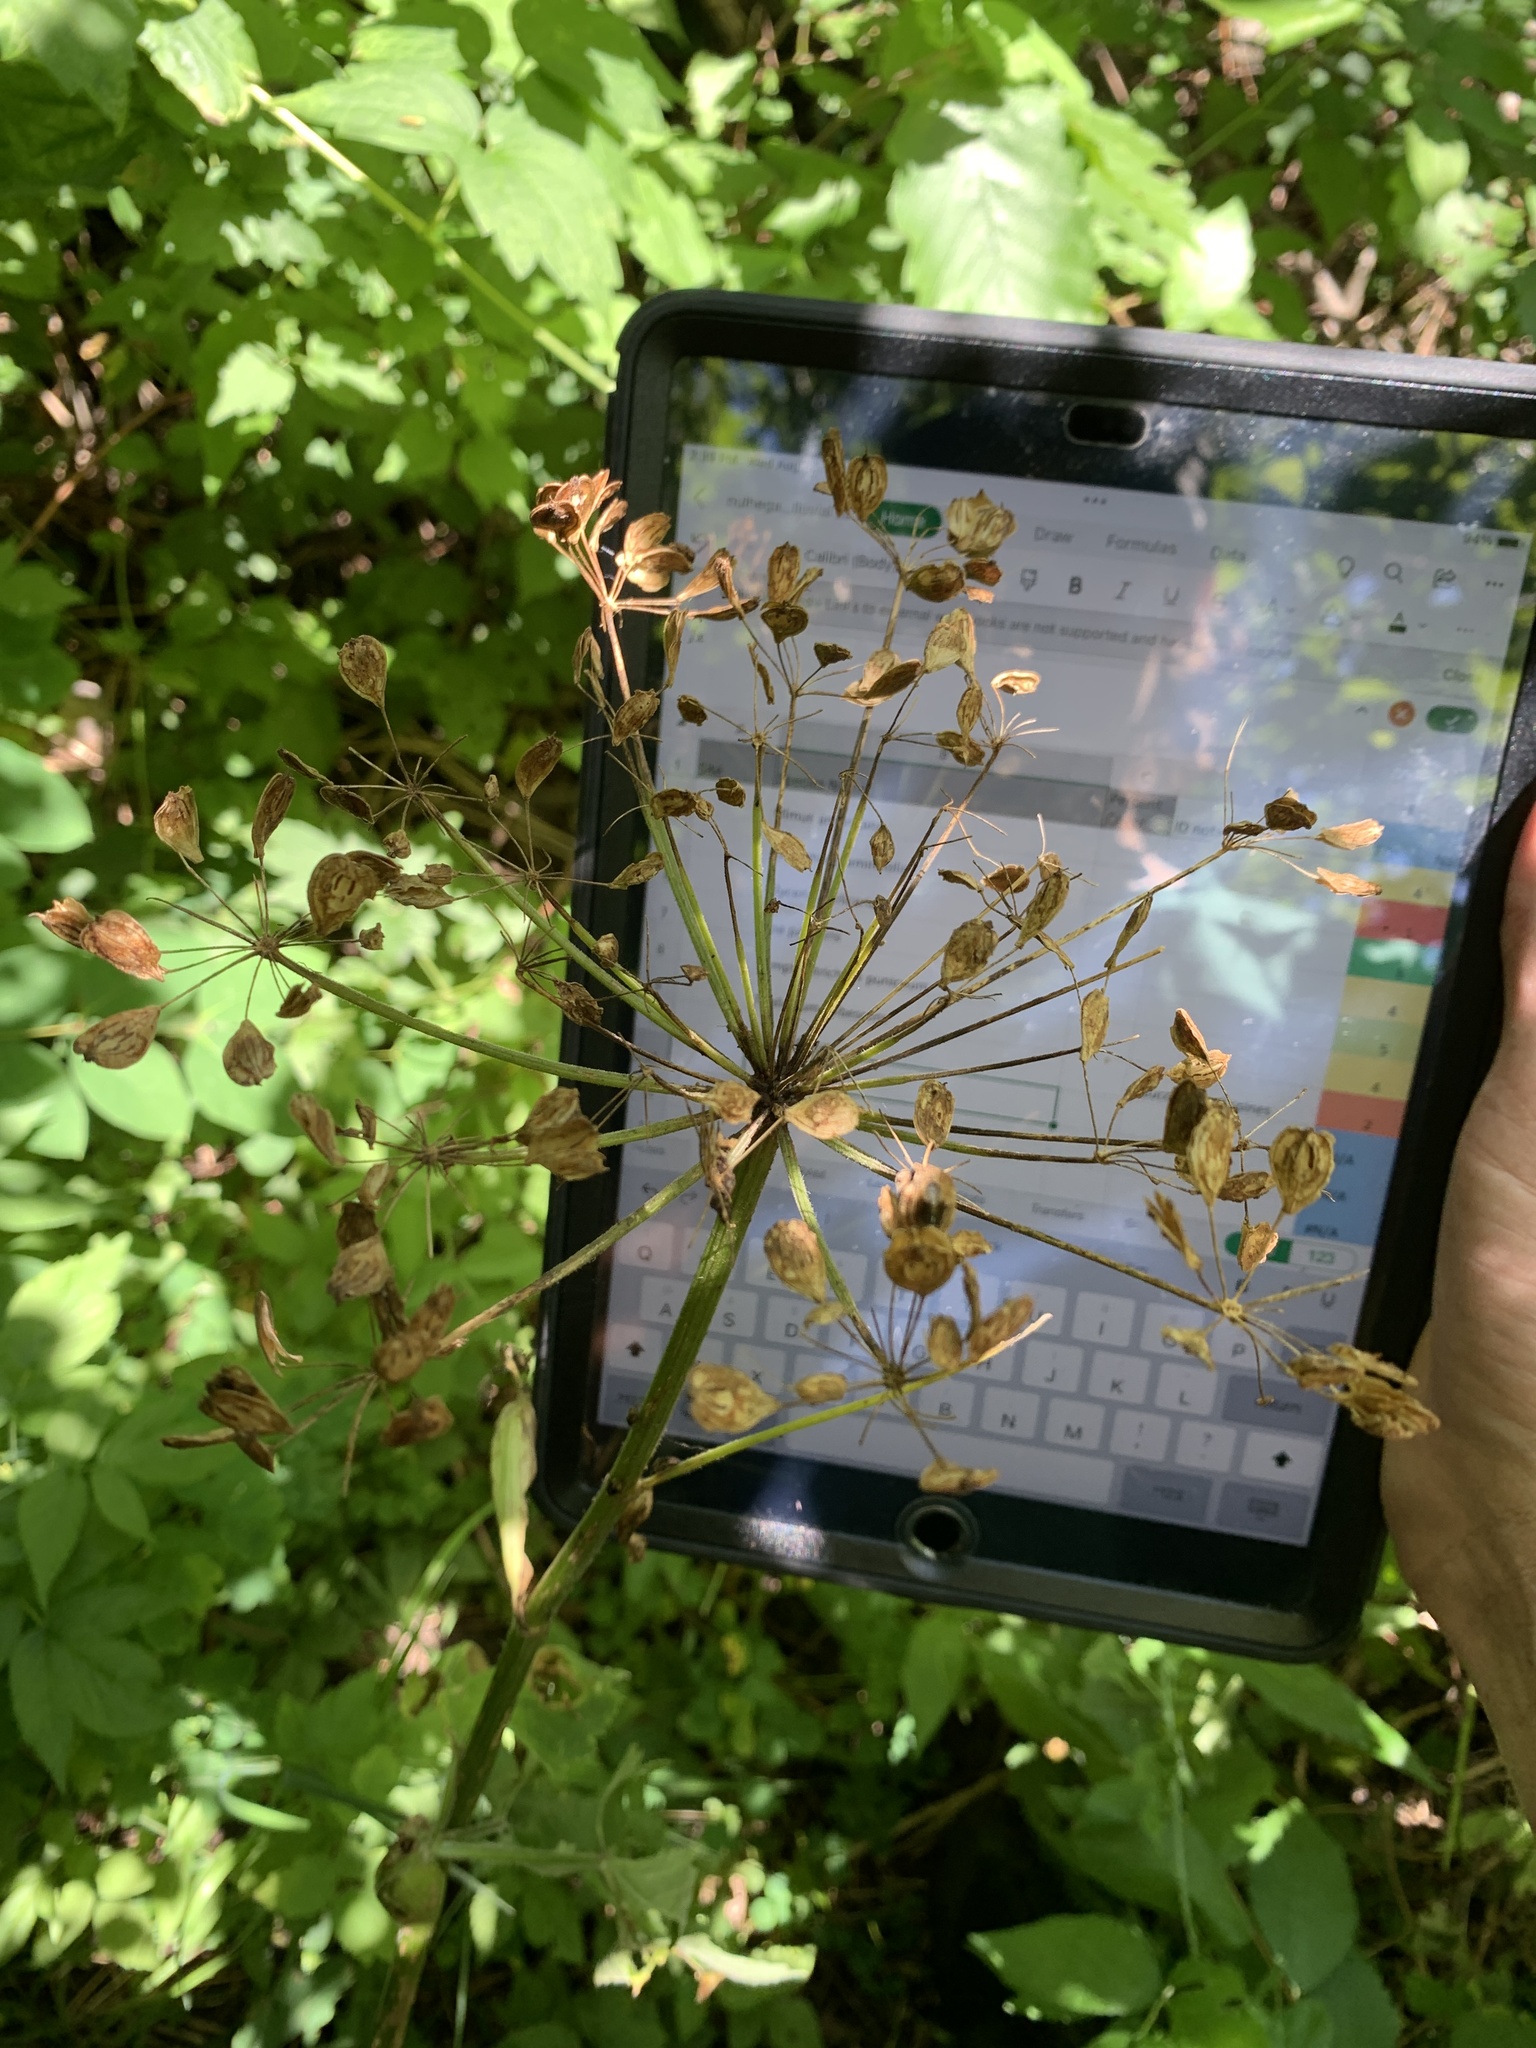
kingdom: Plantae
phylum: Tracheophyta
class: Magnoliopsida
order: Apiales
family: Apiaceae
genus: Heracleum
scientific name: Heracleum maximum
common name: American cow parsnip
